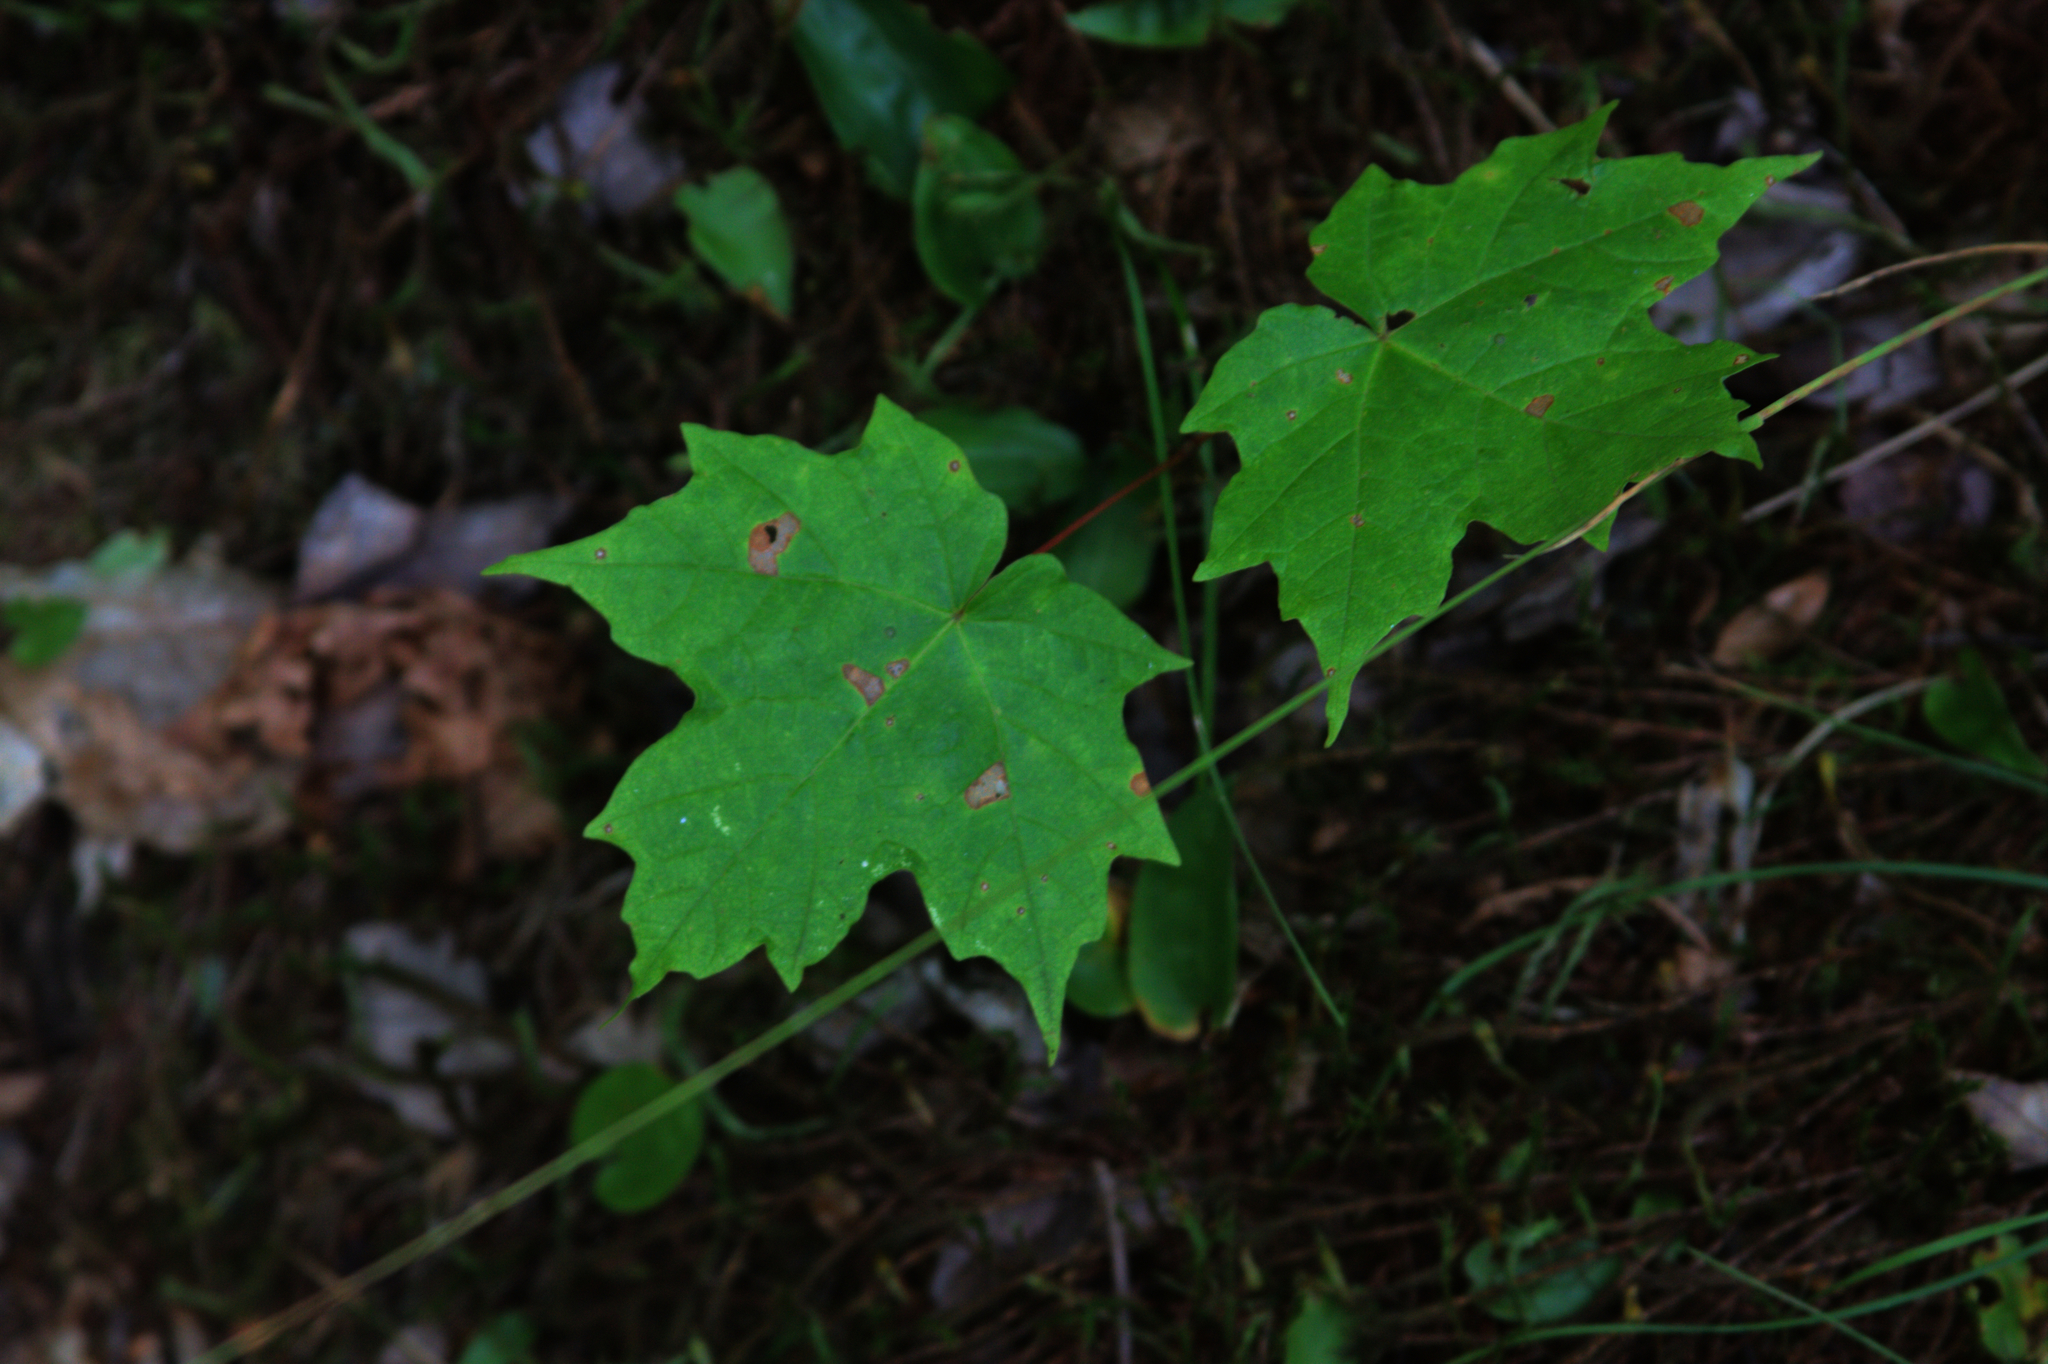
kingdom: Plantae
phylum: Tracheophyta
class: Magnoliopsida
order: Sapindales
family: Sapindaceae
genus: Acer
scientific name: Acer saccharum
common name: Sugar maple
